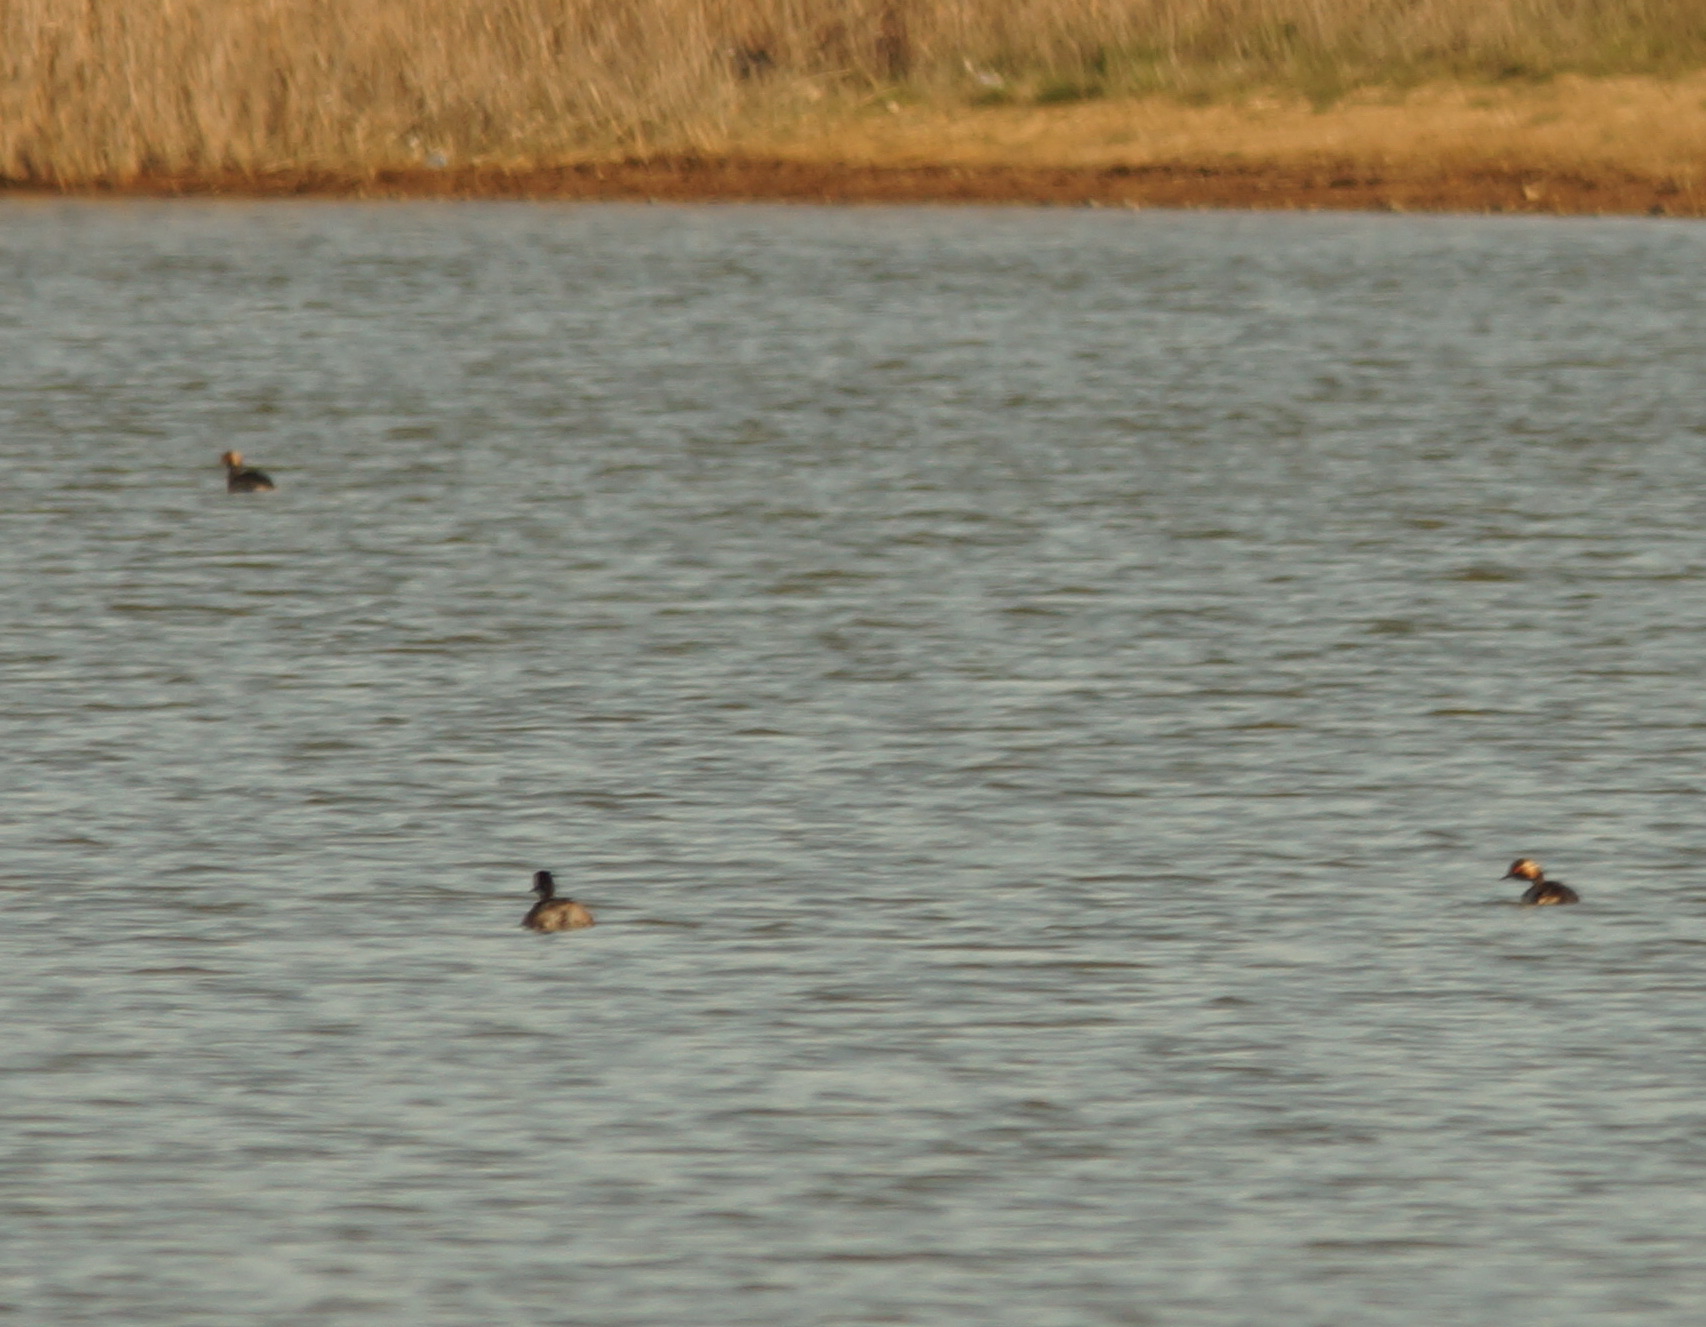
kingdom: Animalia
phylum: Chordata
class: Aves
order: Podicipediformes
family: Podicipedidae
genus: Podiceps
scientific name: Podiceps nigricollis
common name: Black-necked grebe
